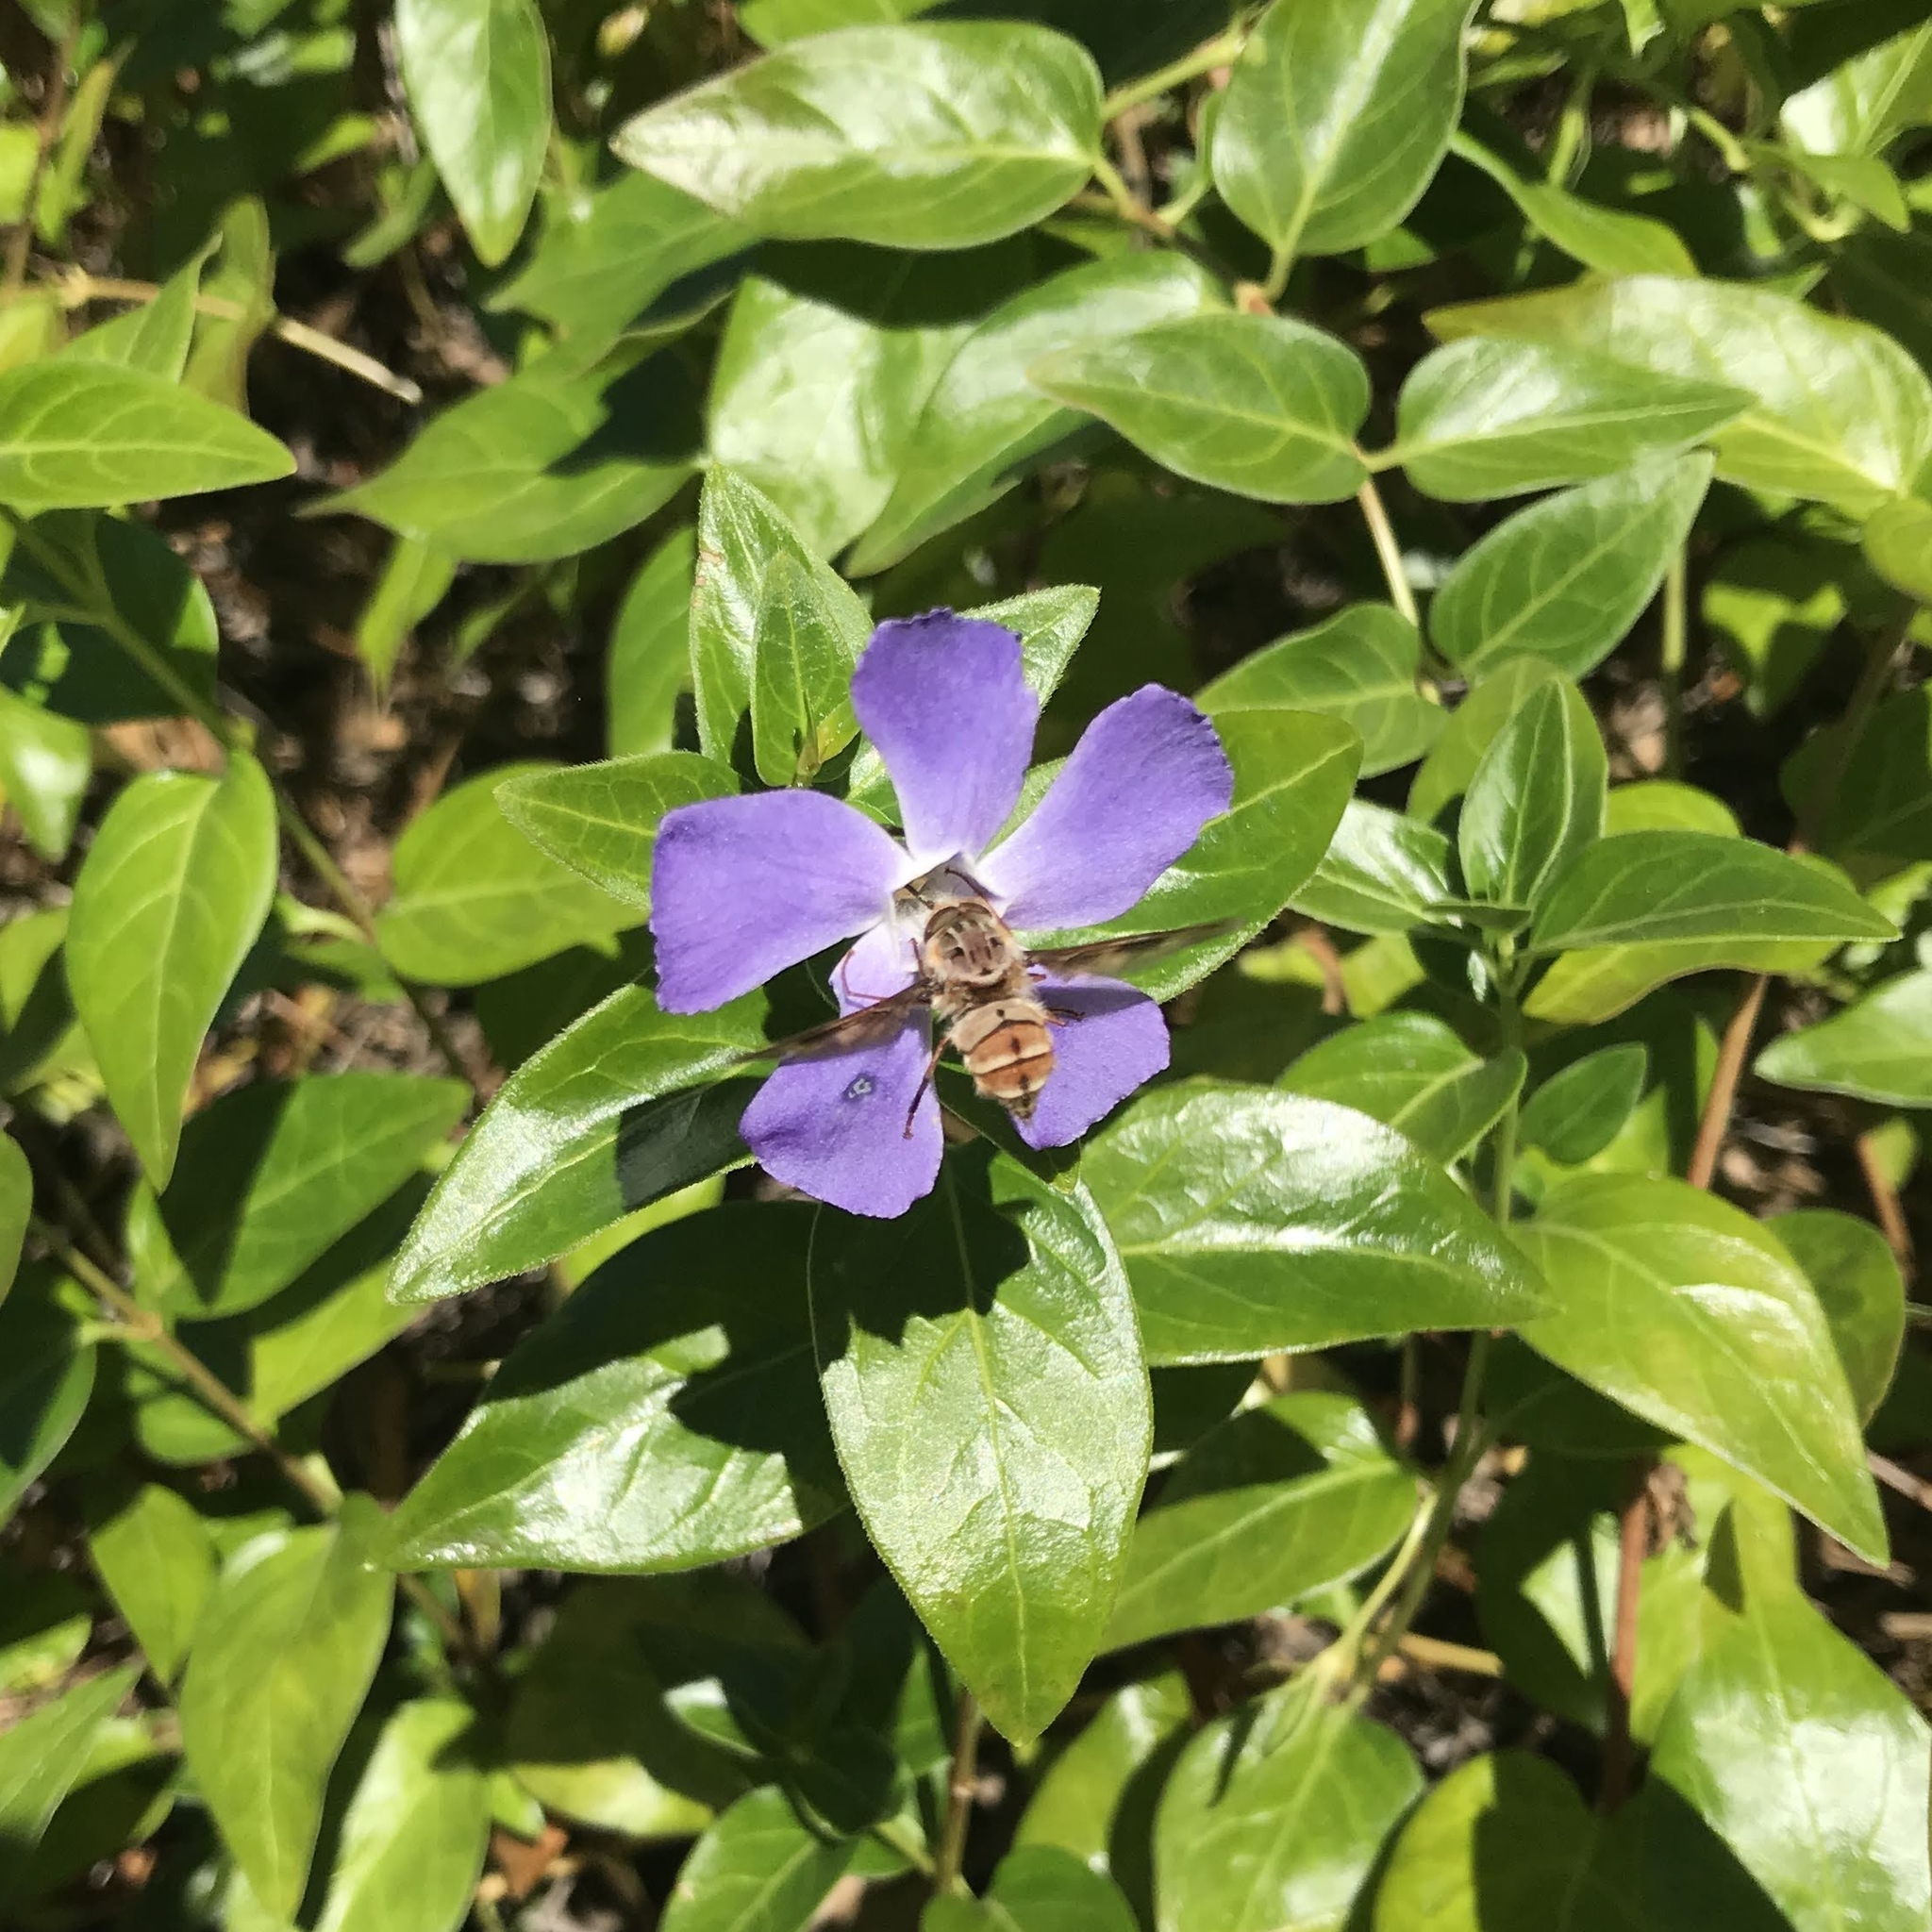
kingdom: Animalia
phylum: Arthropoda
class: Insecta
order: Diptera
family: Nemestrinidae
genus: Trichophthalma
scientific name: Trichophthalma nubipennis
